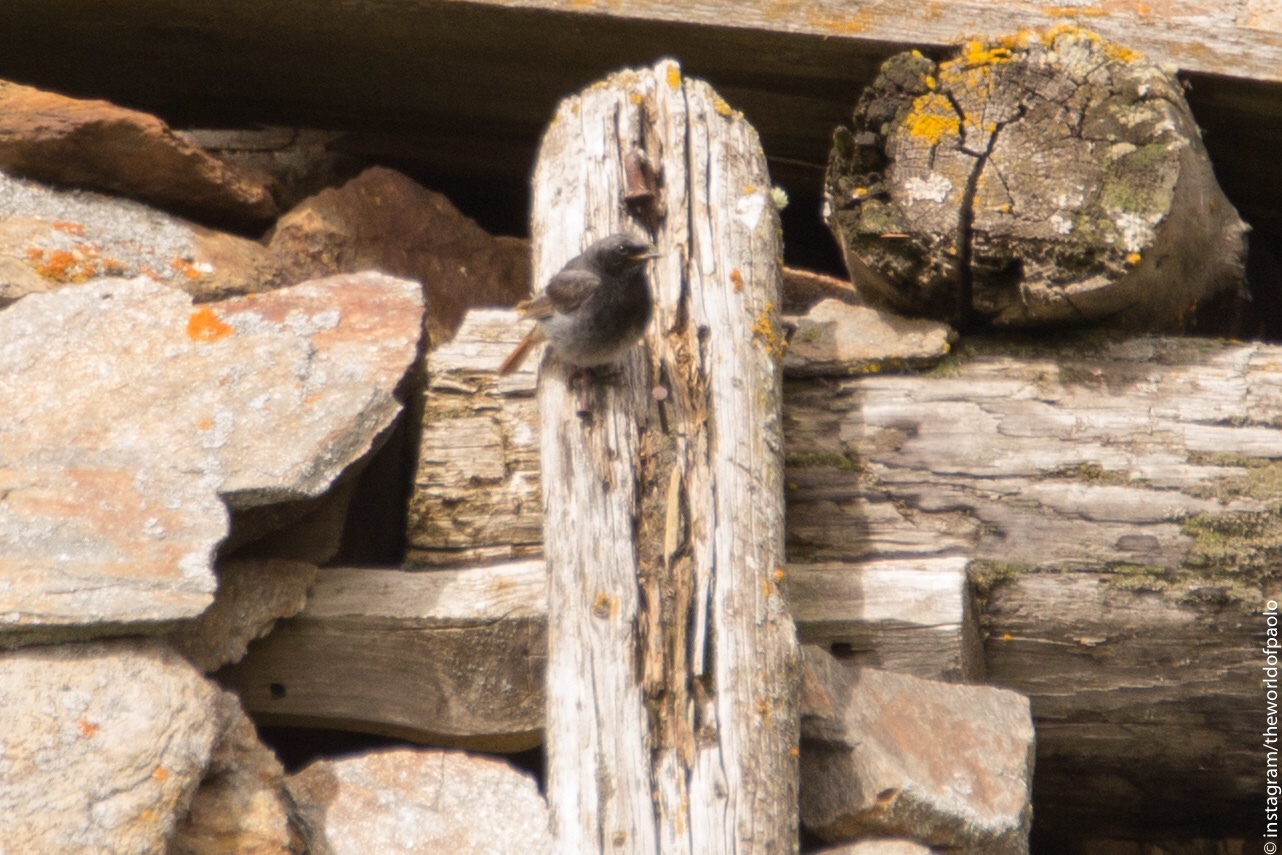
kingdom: Animalia
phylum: Chordata
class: Aves
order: Passeriformes
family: Muscicapidae
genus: Phoenicurus
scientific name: Phoenicurus ochruros
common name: Black redstart
